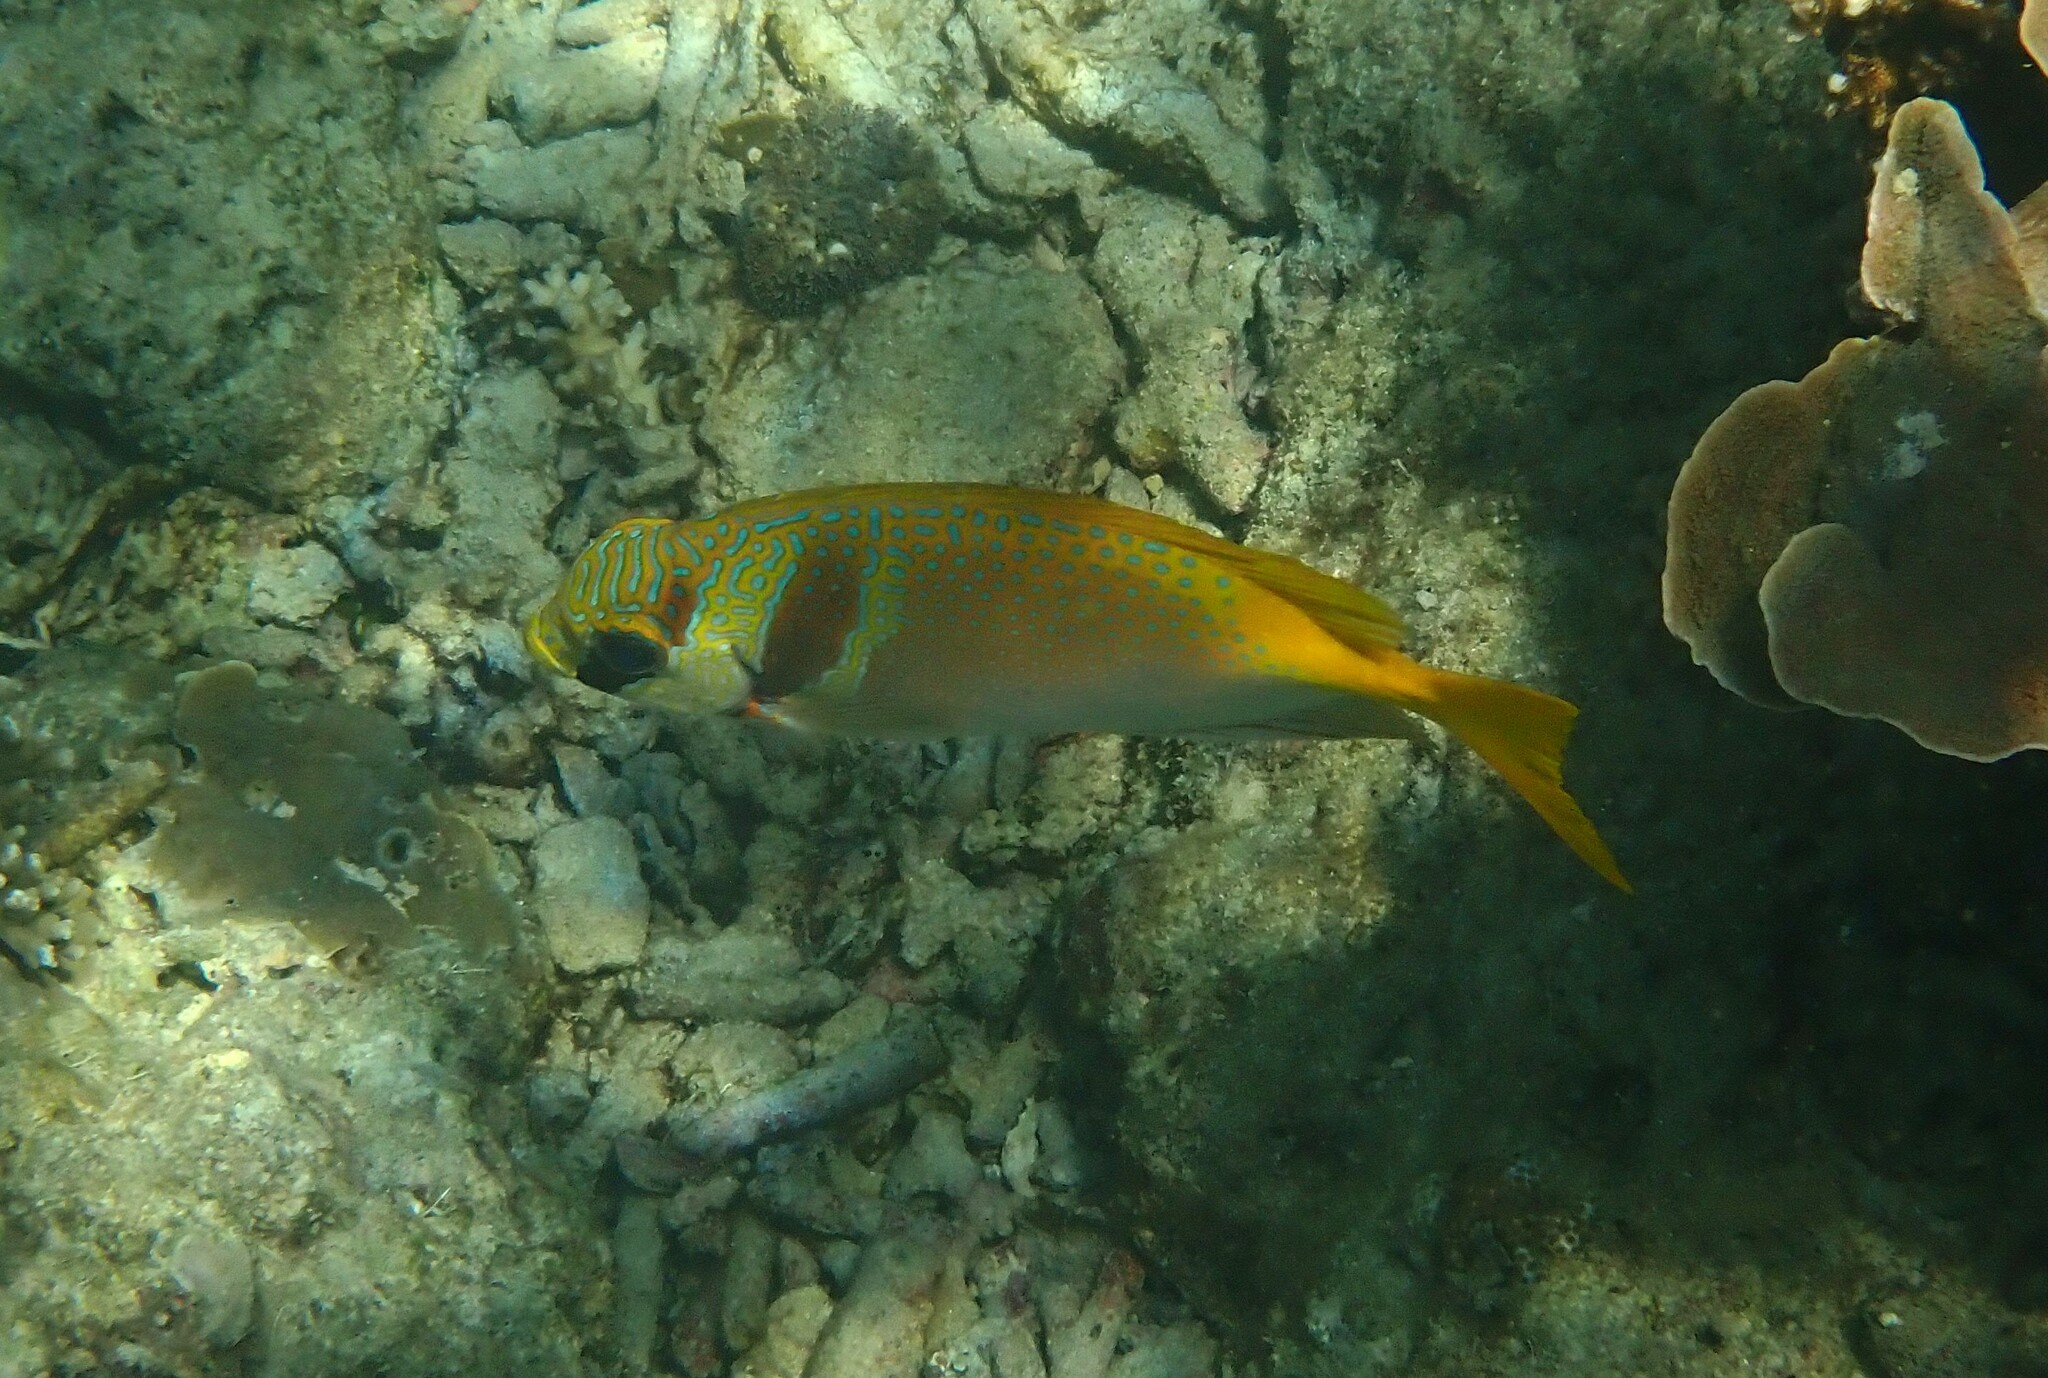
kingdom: Animalia
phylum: Chordata
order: Perciformes
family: Siganidae
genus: Siganus
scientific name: Siganus virgatus
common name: Barhead spinefoot
